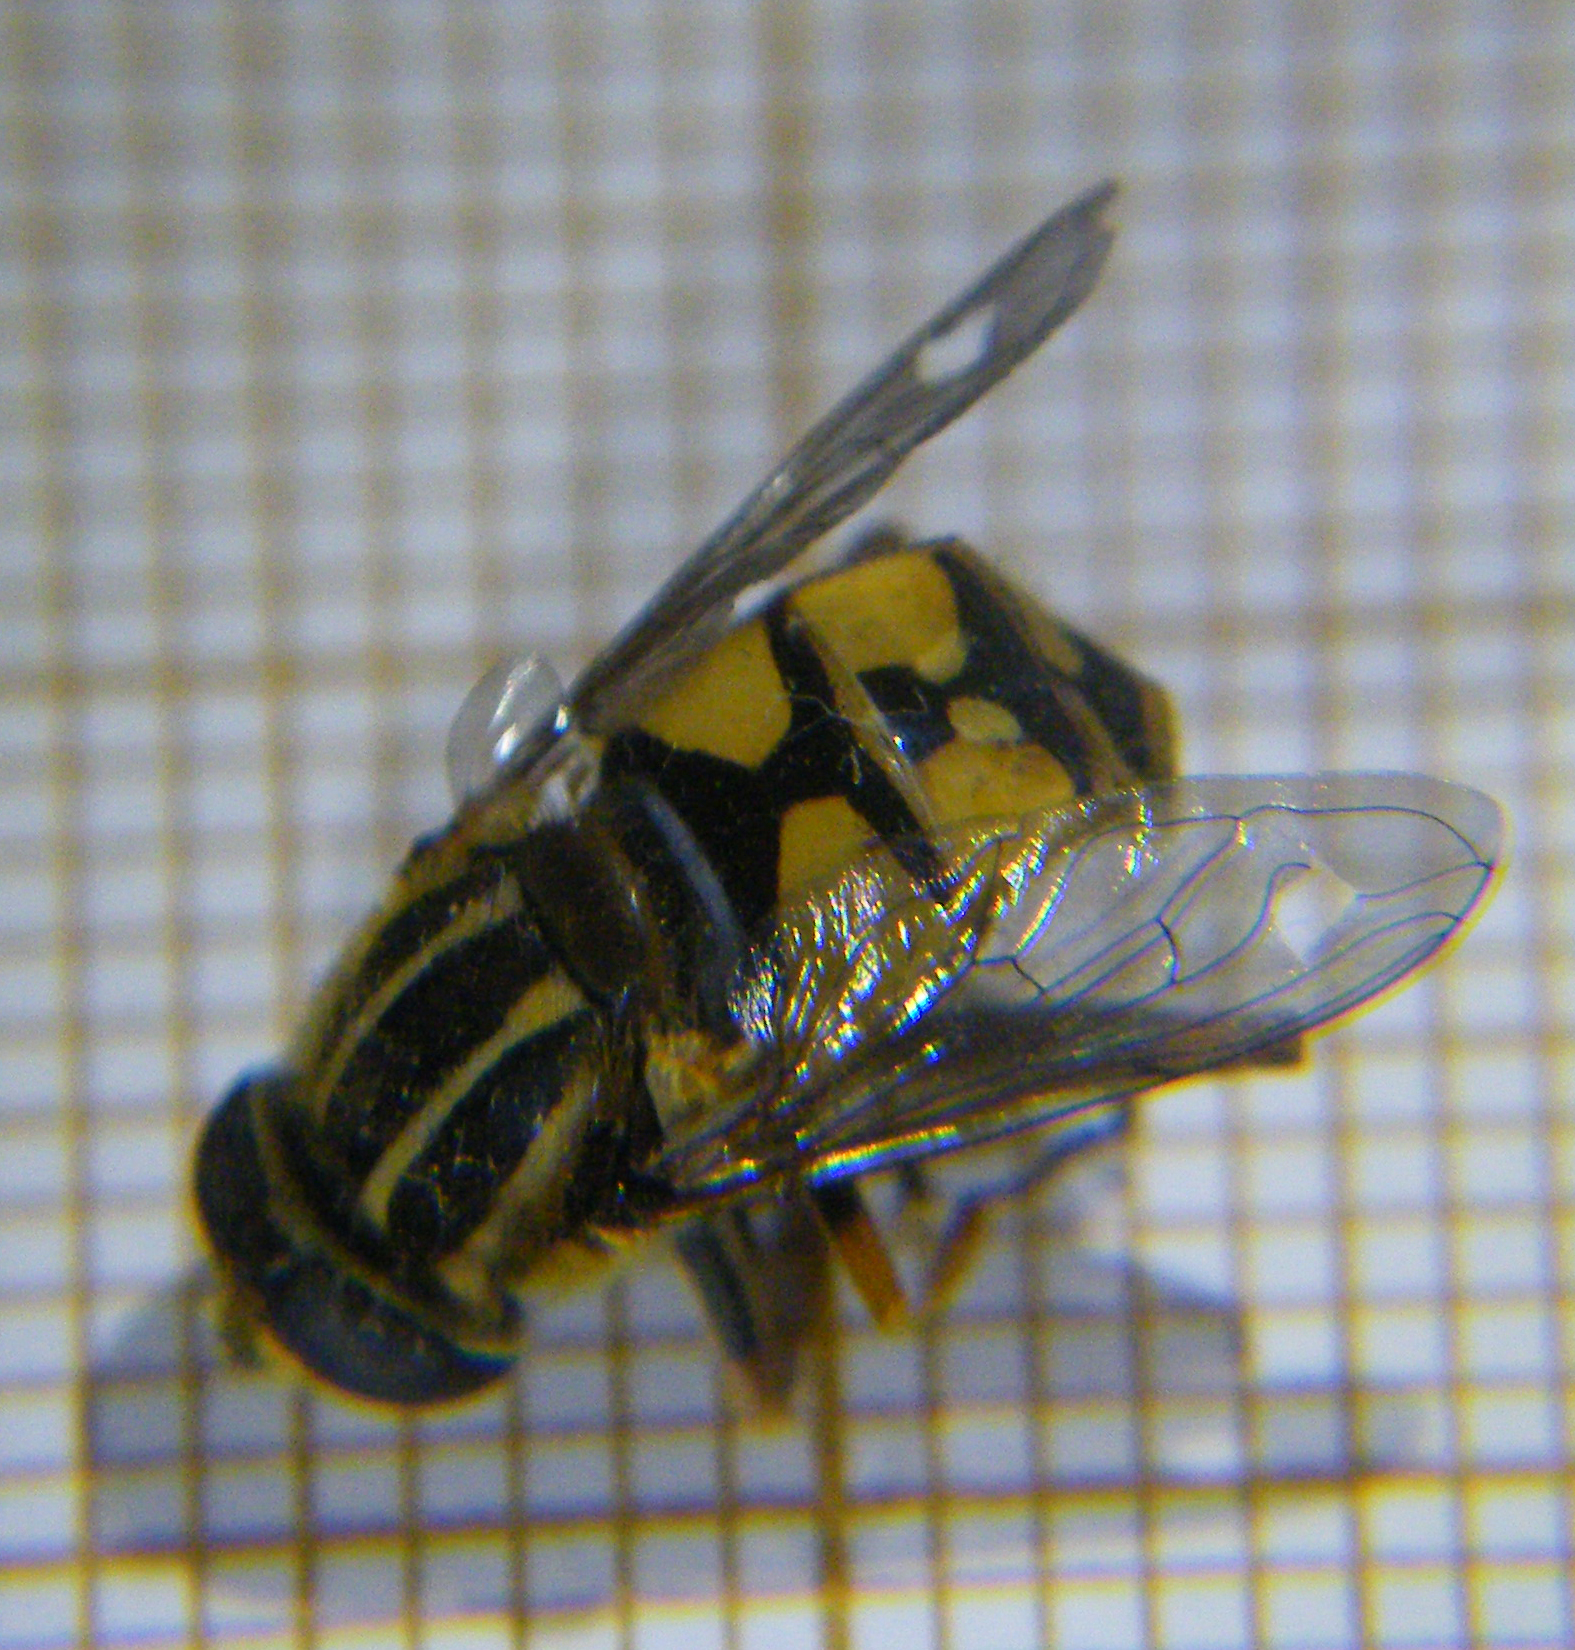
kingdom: Animalia
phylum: Arthropoda
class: Insecta
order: Diptera
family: Syrphidae
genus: Helophilus
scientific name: Helophilus pendulus
